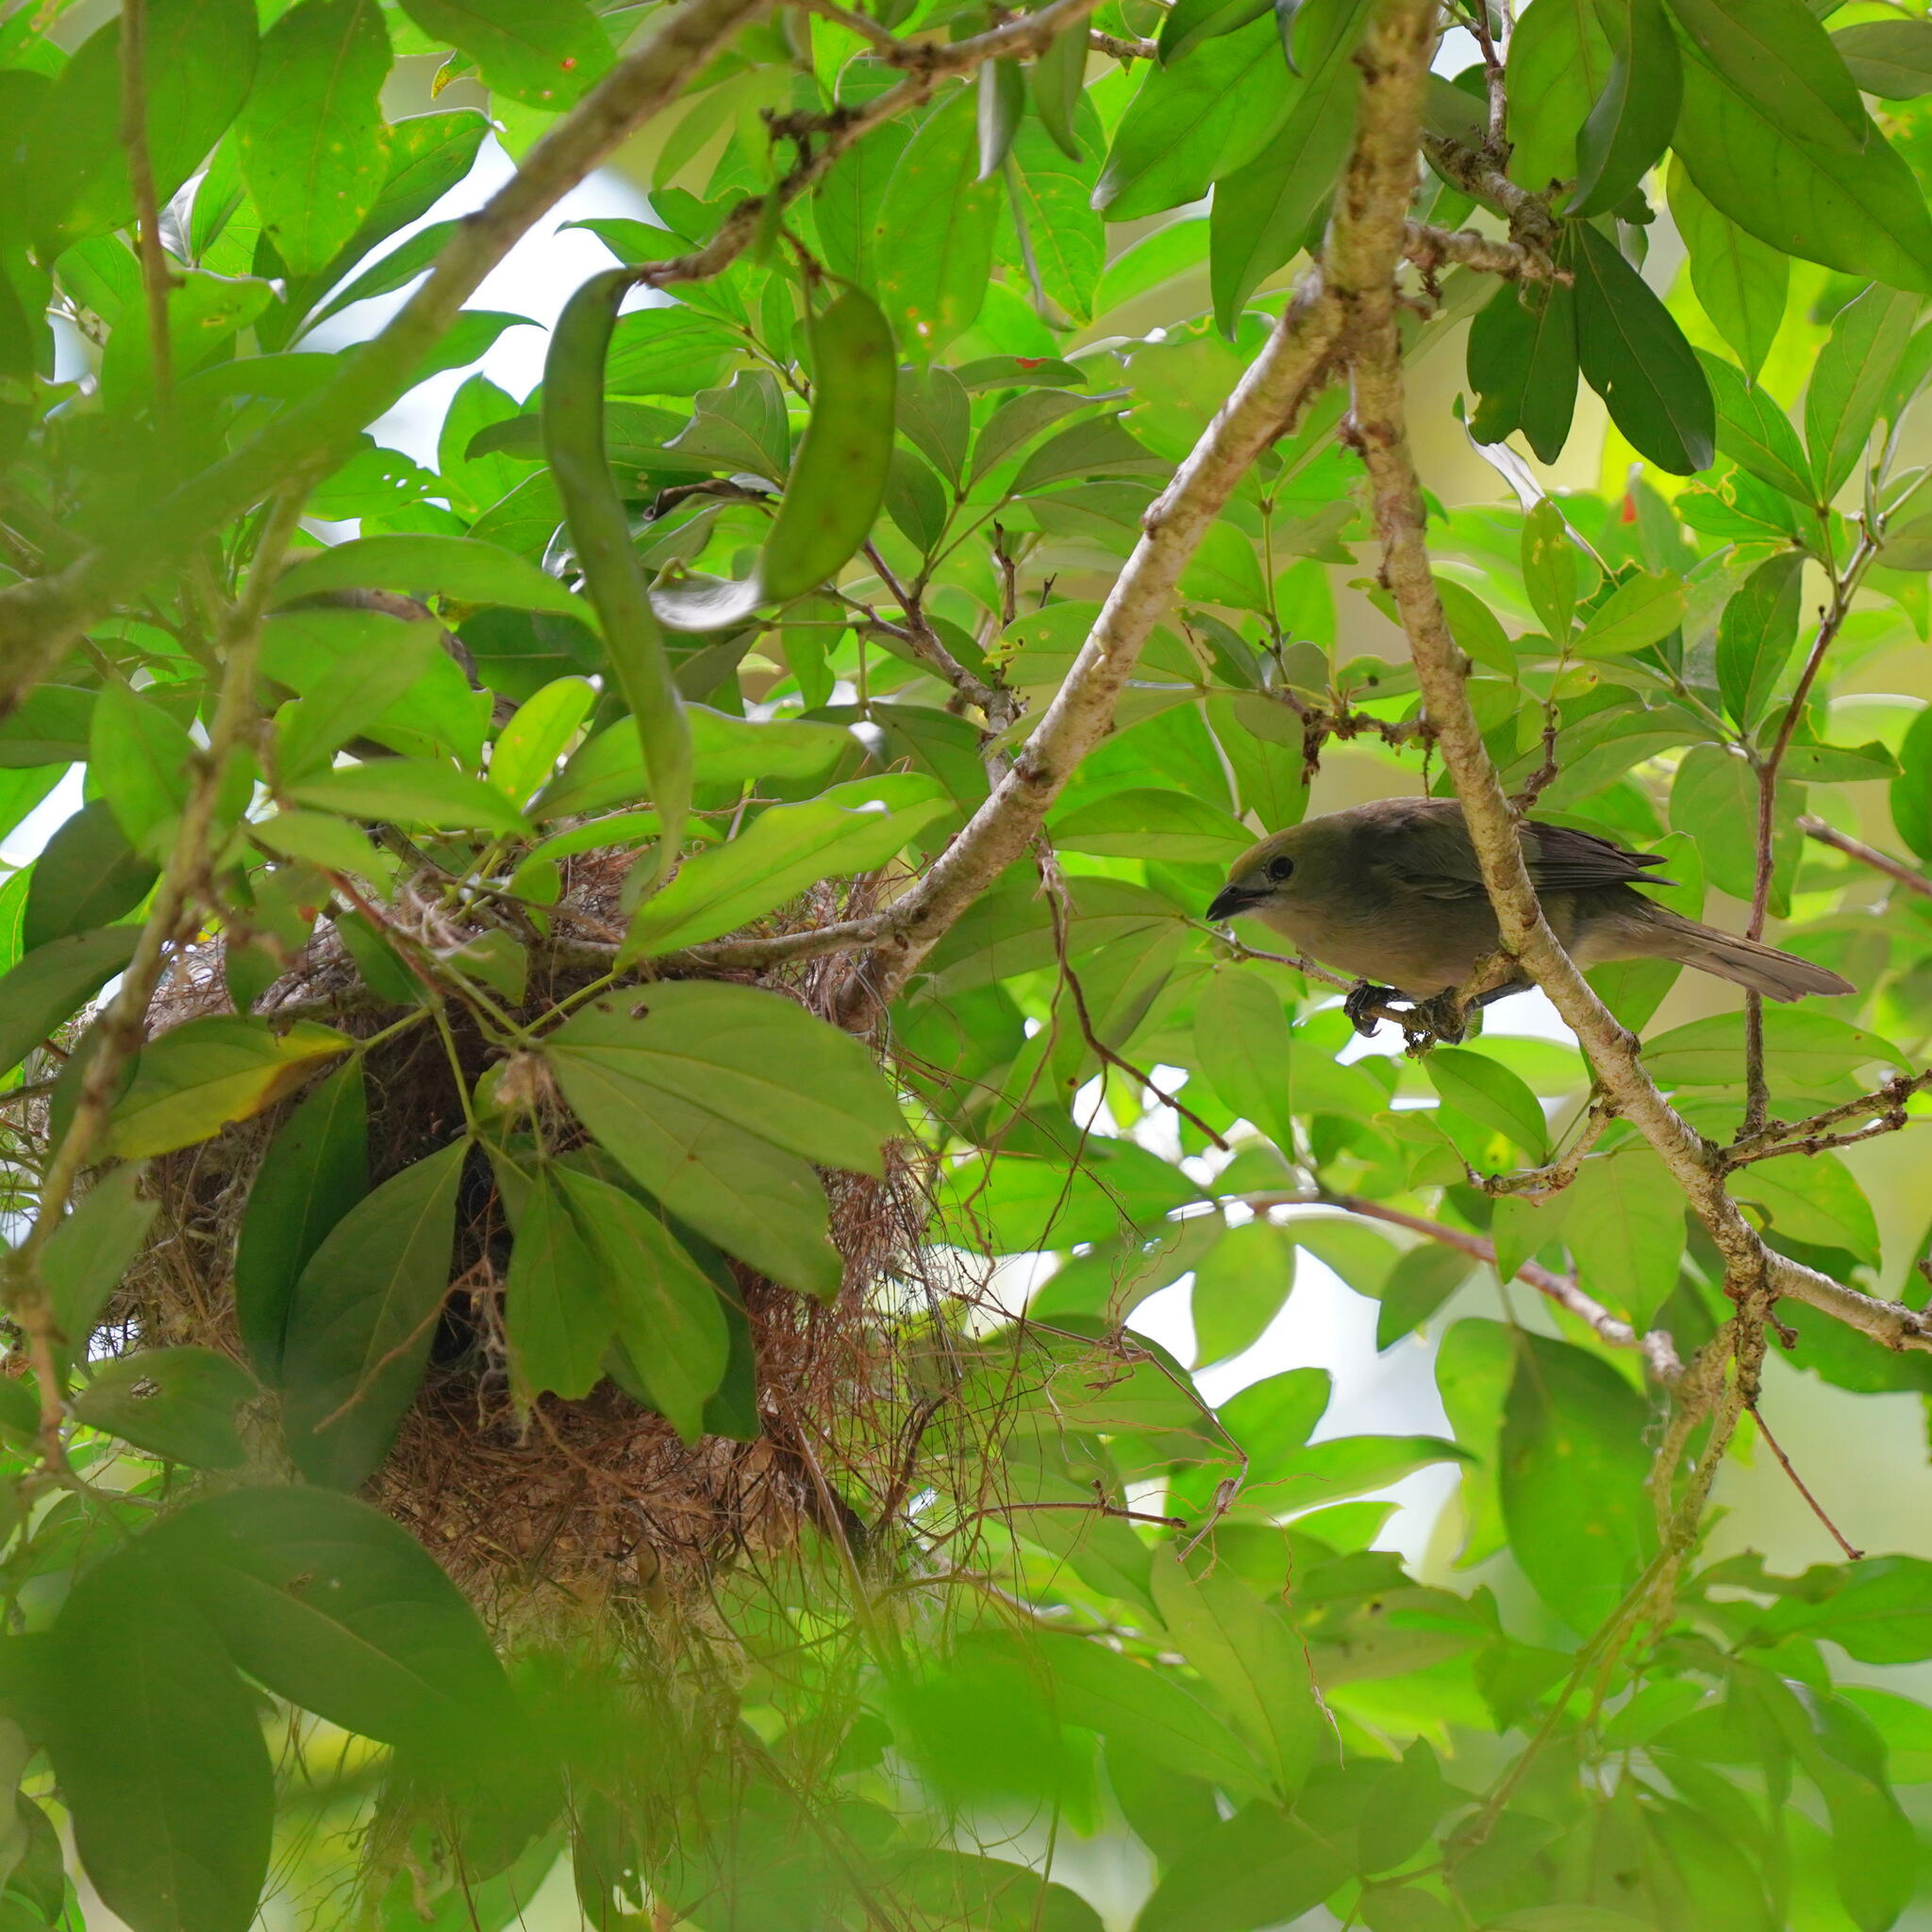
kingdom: Animalia
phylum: Chordata
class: Aves
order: Passeriformes
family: Thraupidae
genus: Thraupis
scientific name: Thraupis palmarum
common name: Palm tanager
